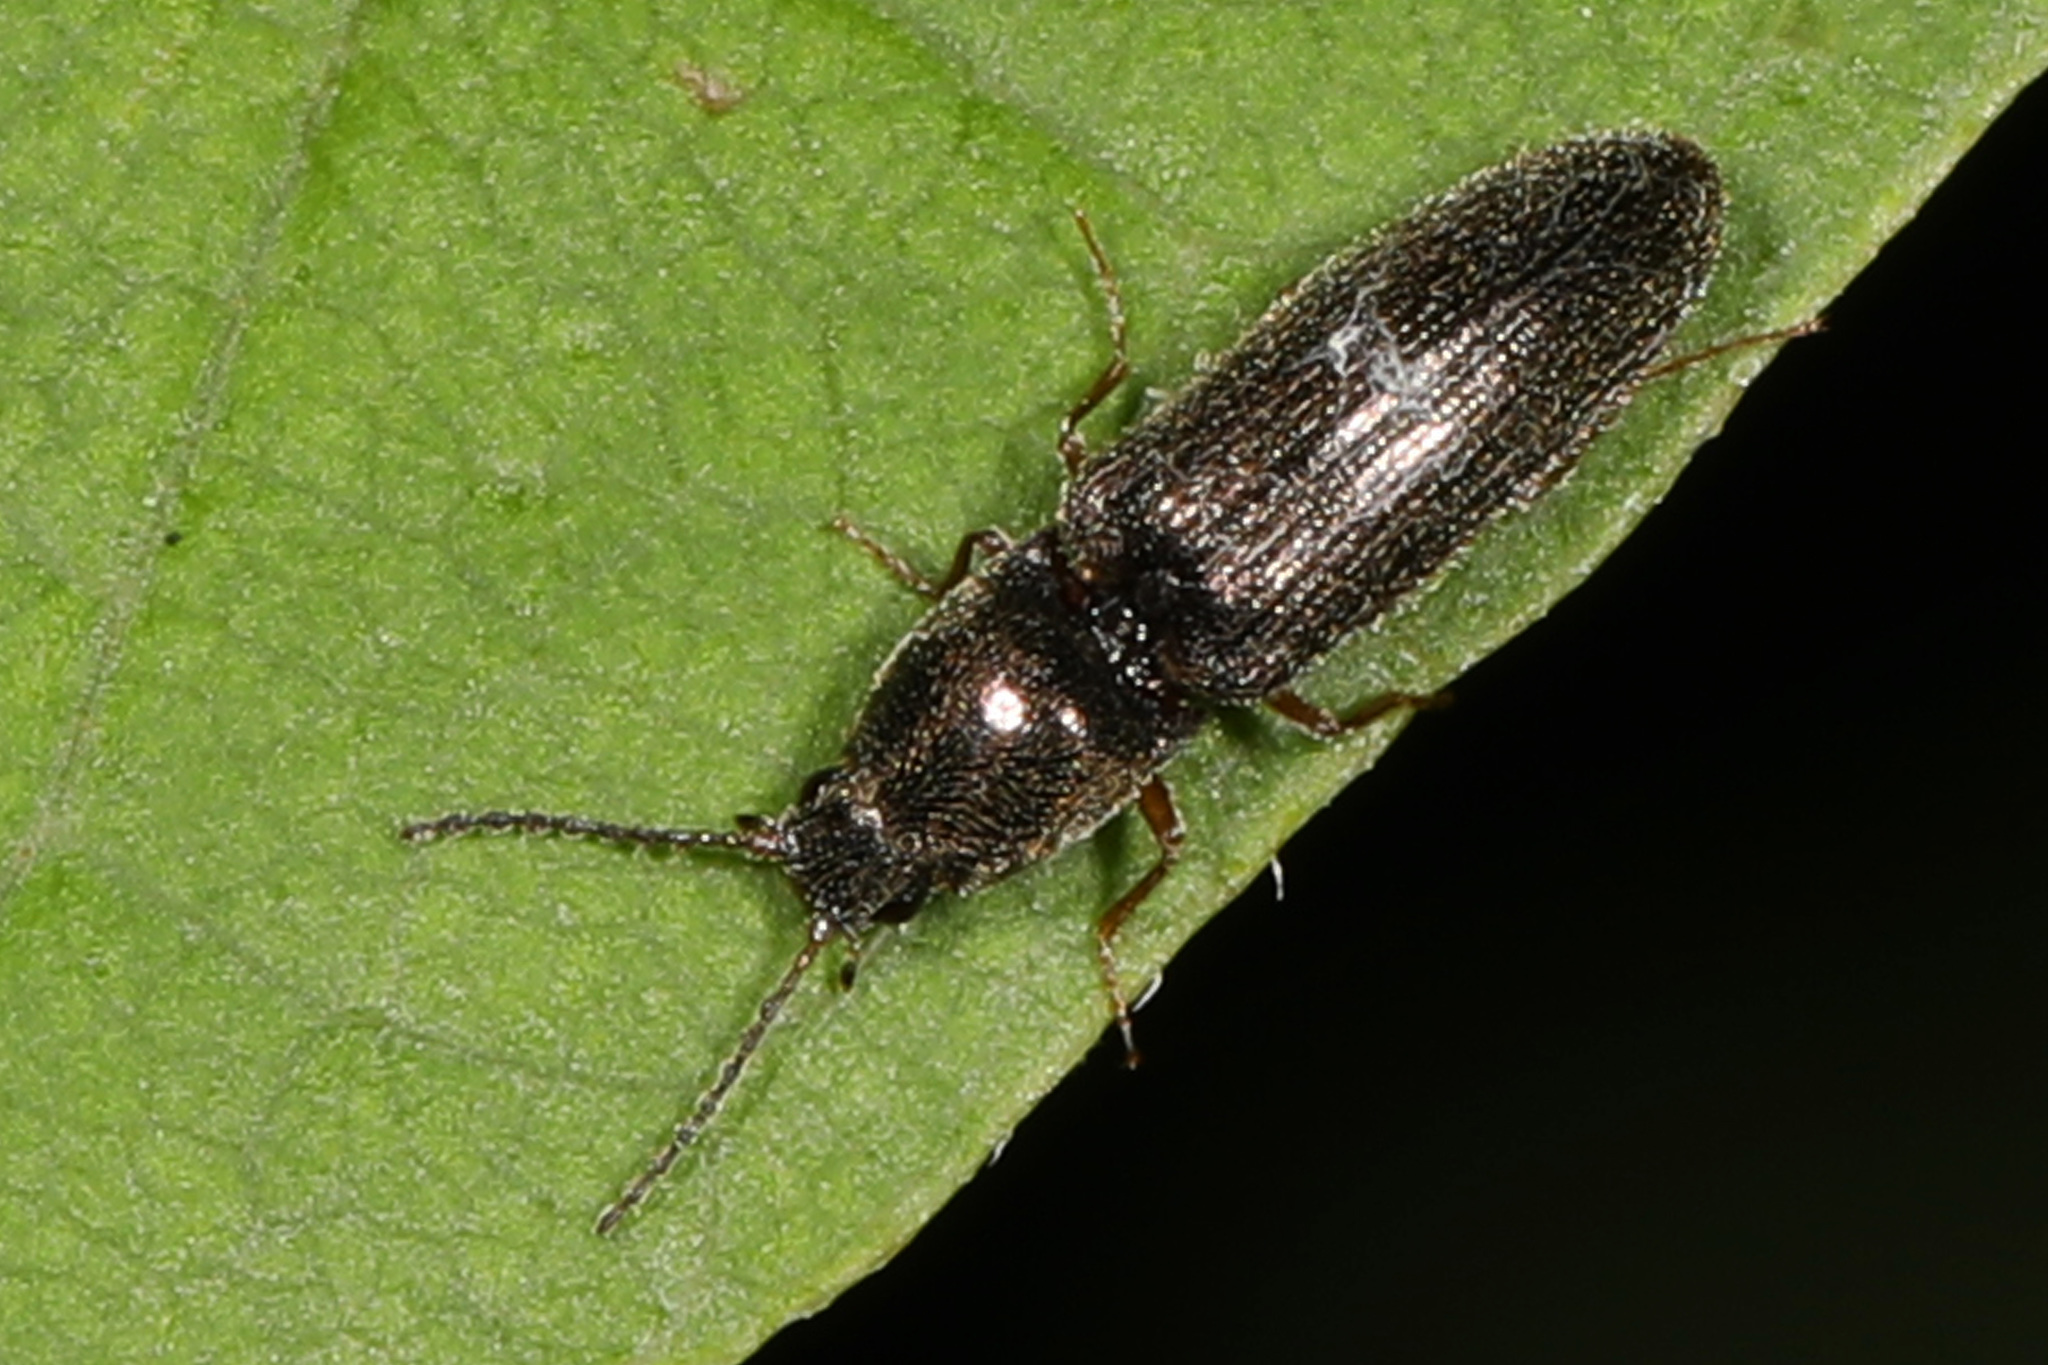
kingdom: Animalia
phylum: Arthropoda
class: Insecta
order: Coleoptera
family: Elateridae
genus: Limonius
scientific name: Limonius quercinus
